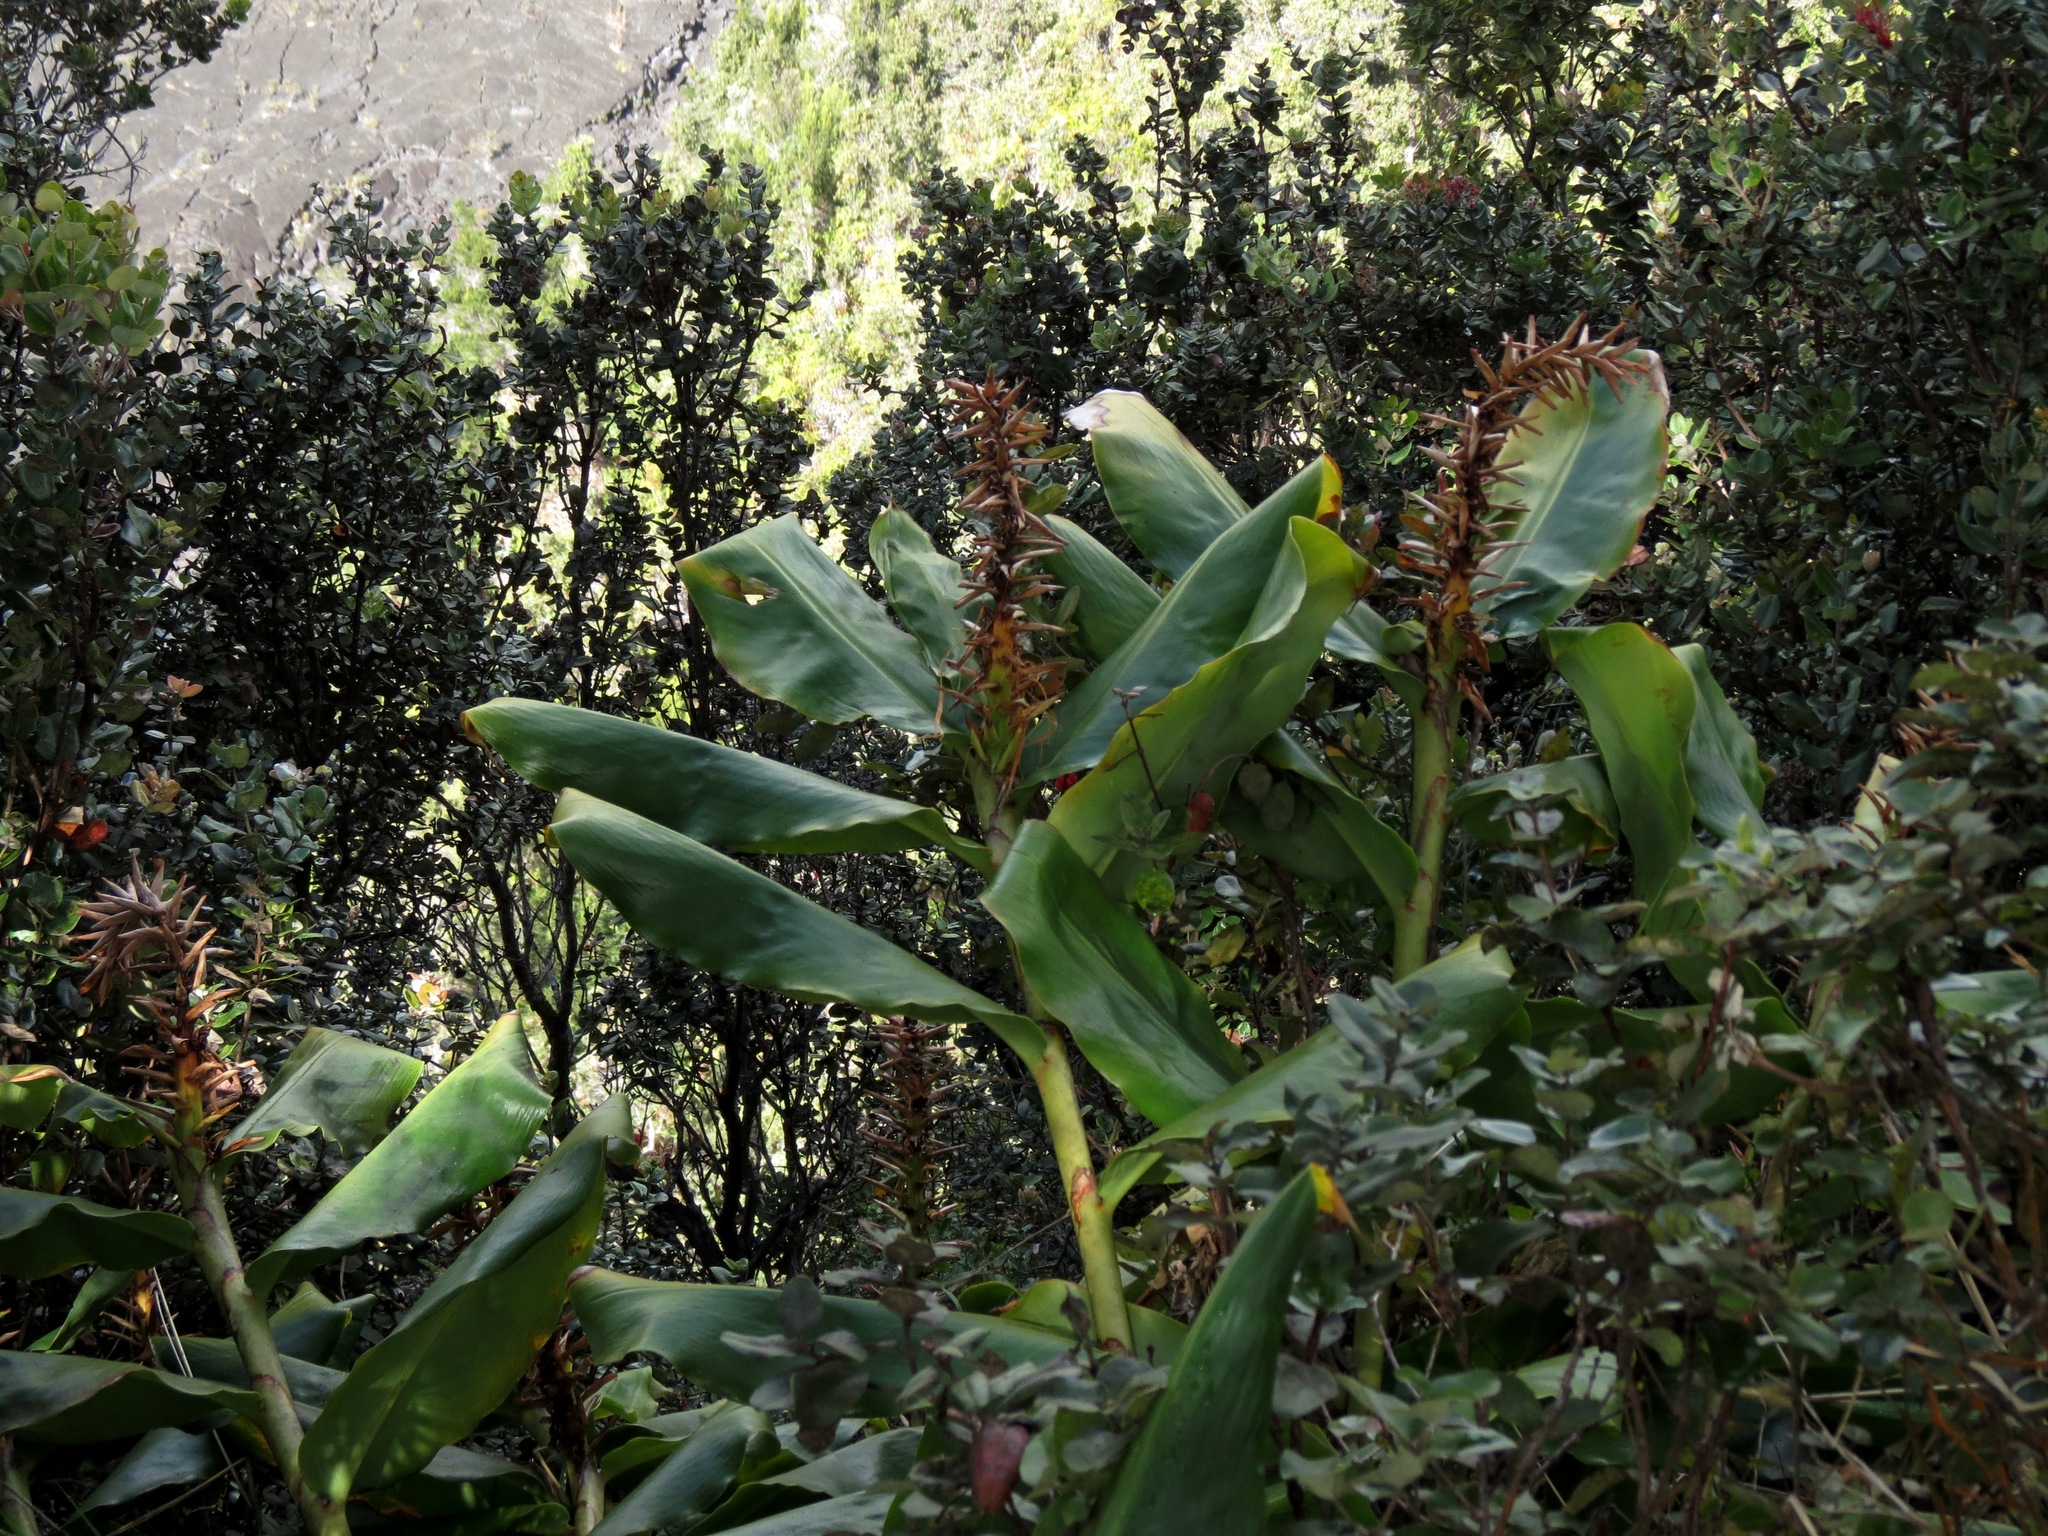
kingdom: Plantae
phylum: Tracheophyta
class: Liliopsida
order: Zingiberales
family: Zingiberaceae
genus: Hedychium
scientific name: Hedychium gardnerianum
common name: Himalayan ginger
